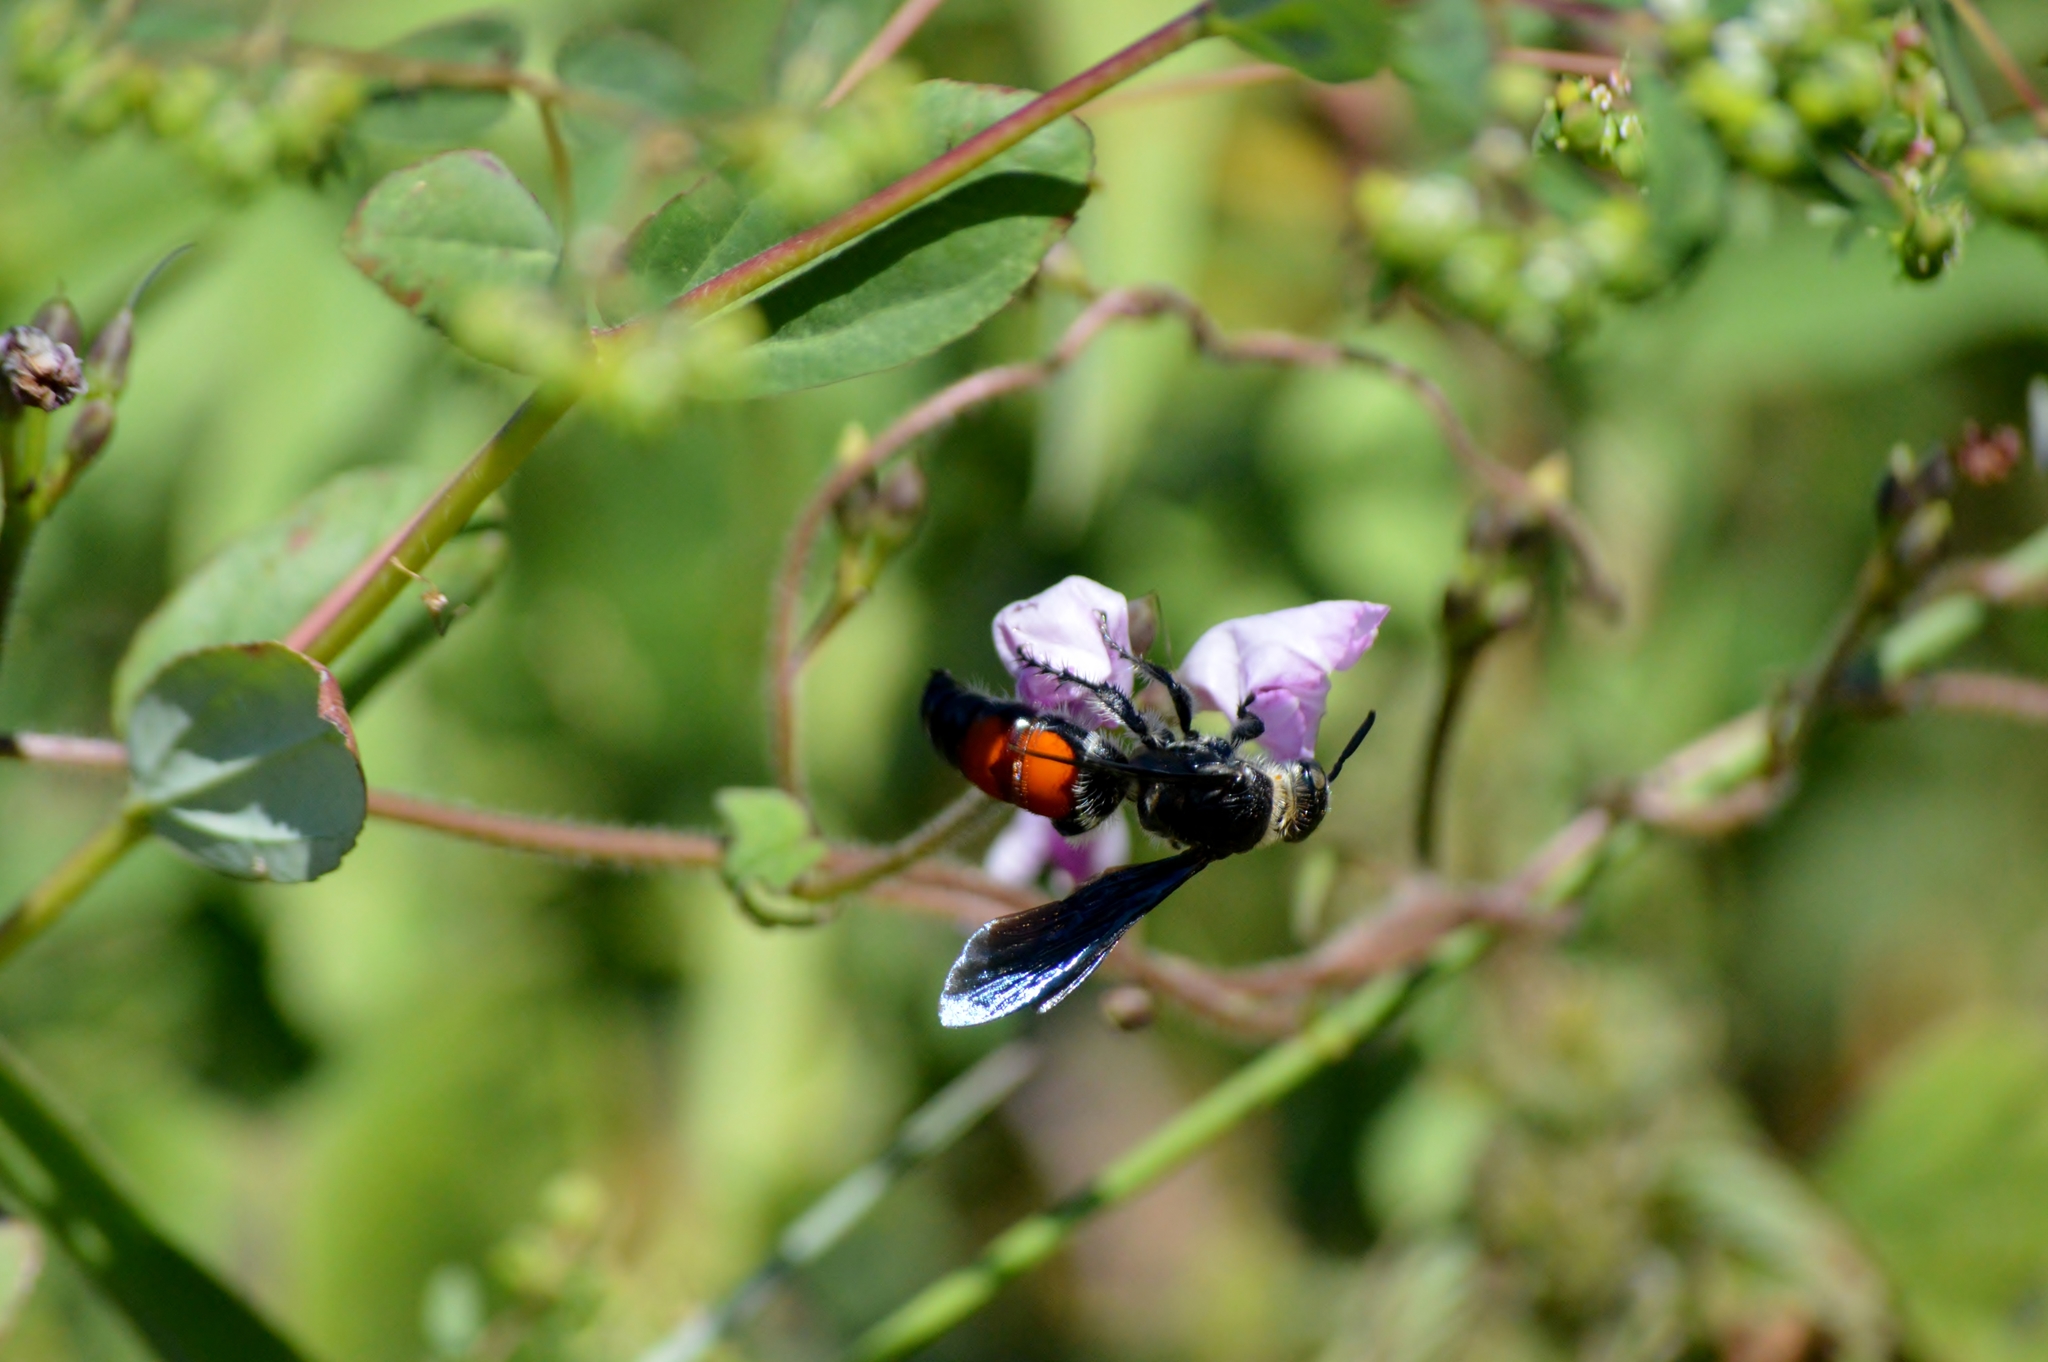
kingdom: Animalia
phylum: Arthropoda
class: Insecta
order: Hymenoptera
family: Scoliidae
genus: Dielis
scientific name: Dielis dorsata
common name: Scoliid wasp
